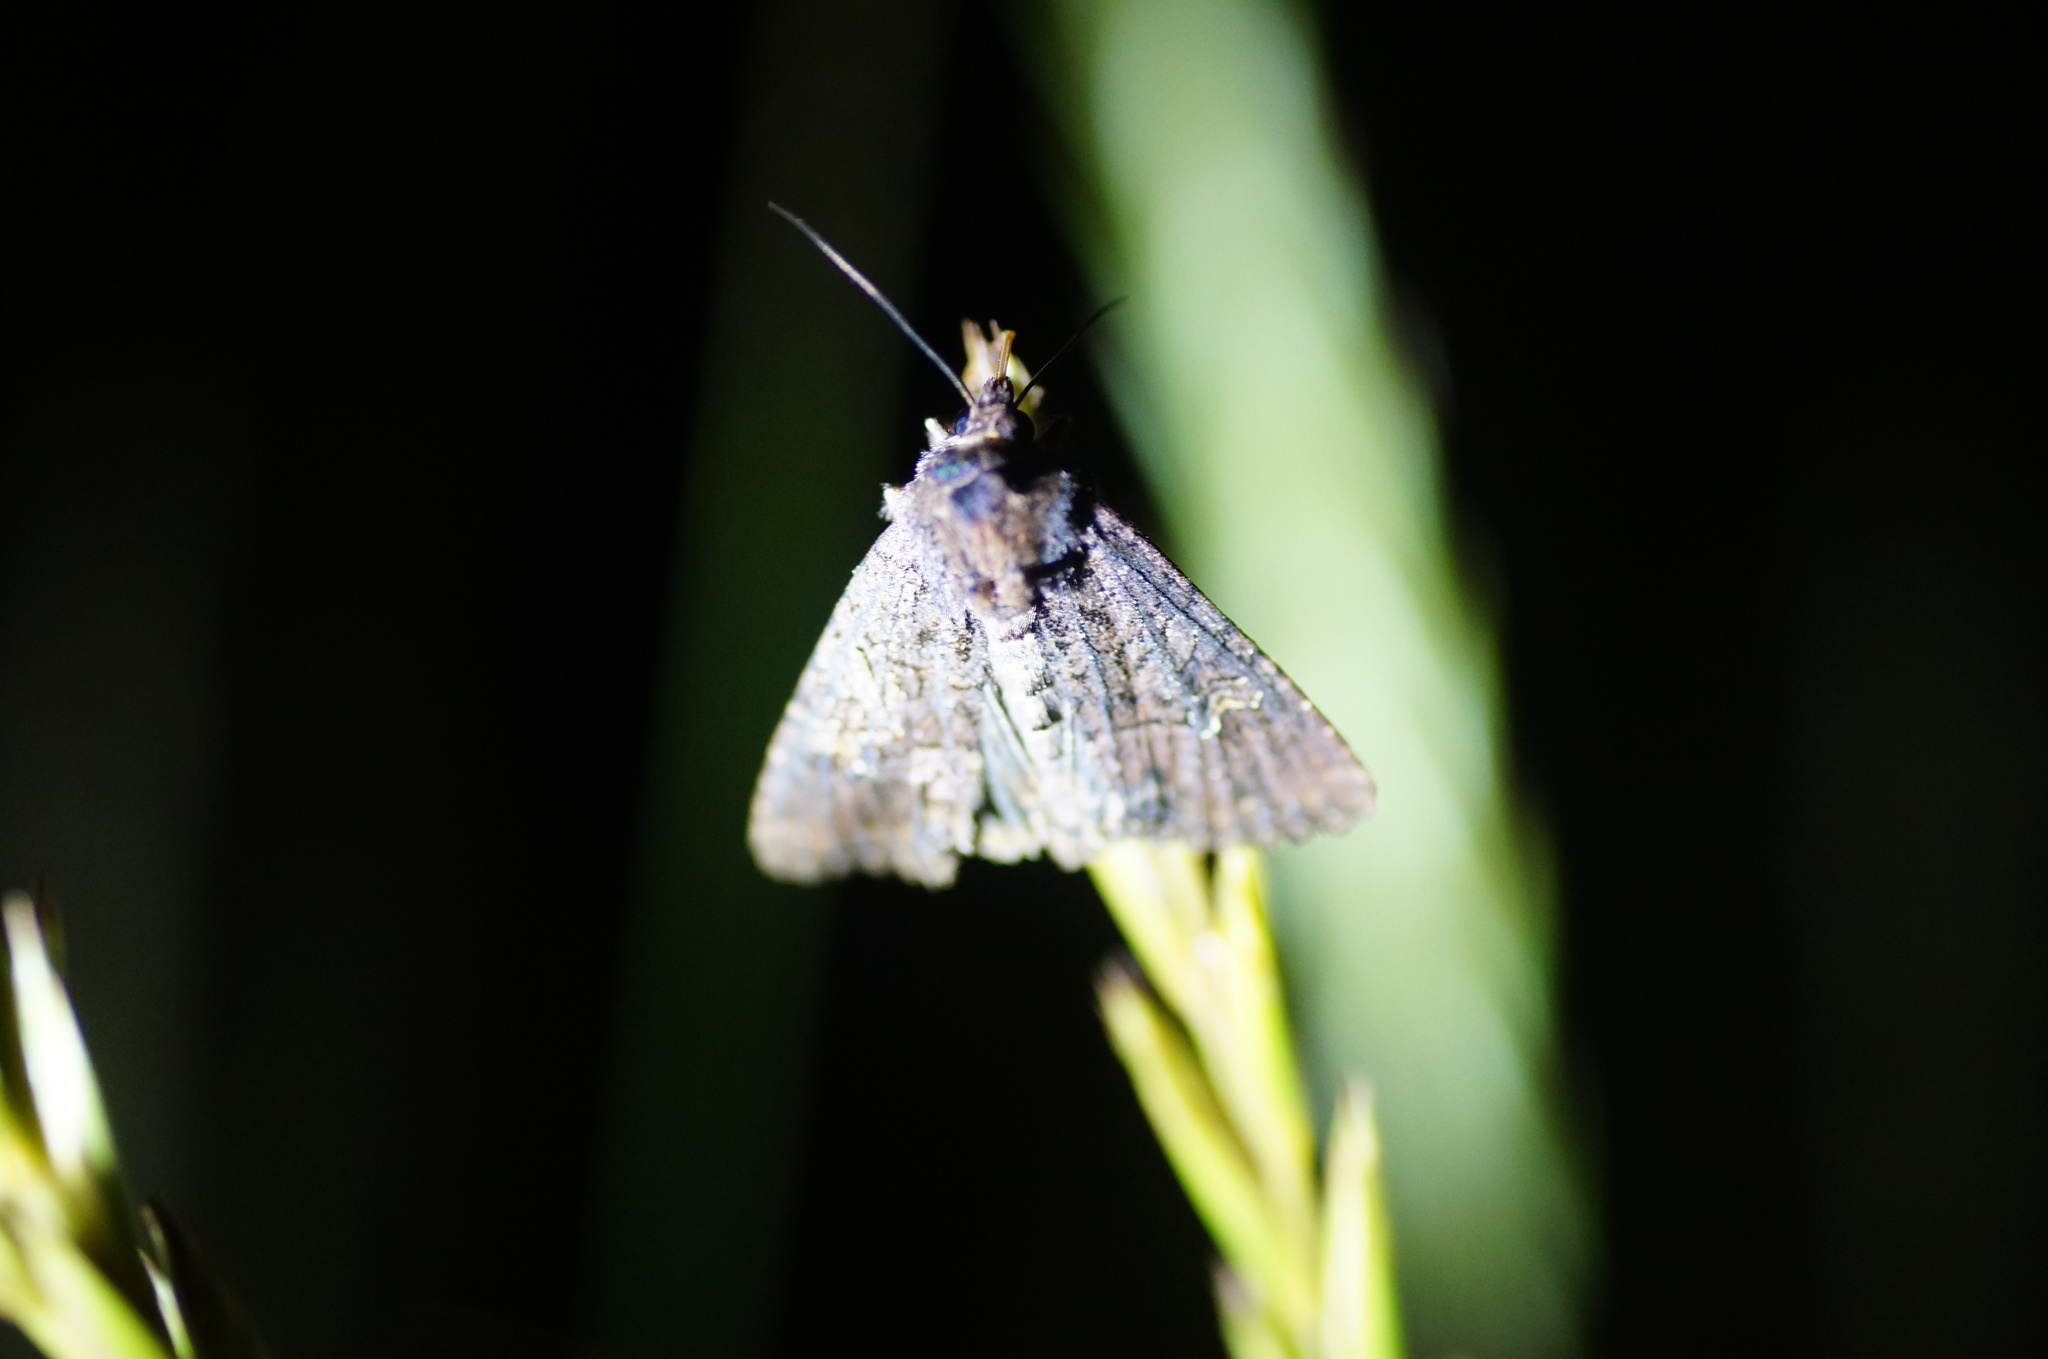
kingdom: Animalia
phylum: Arthropoda
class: Insecta
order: Lepidoptera
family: Noctuidae
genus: Mesapamea
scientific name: Mesapamea
